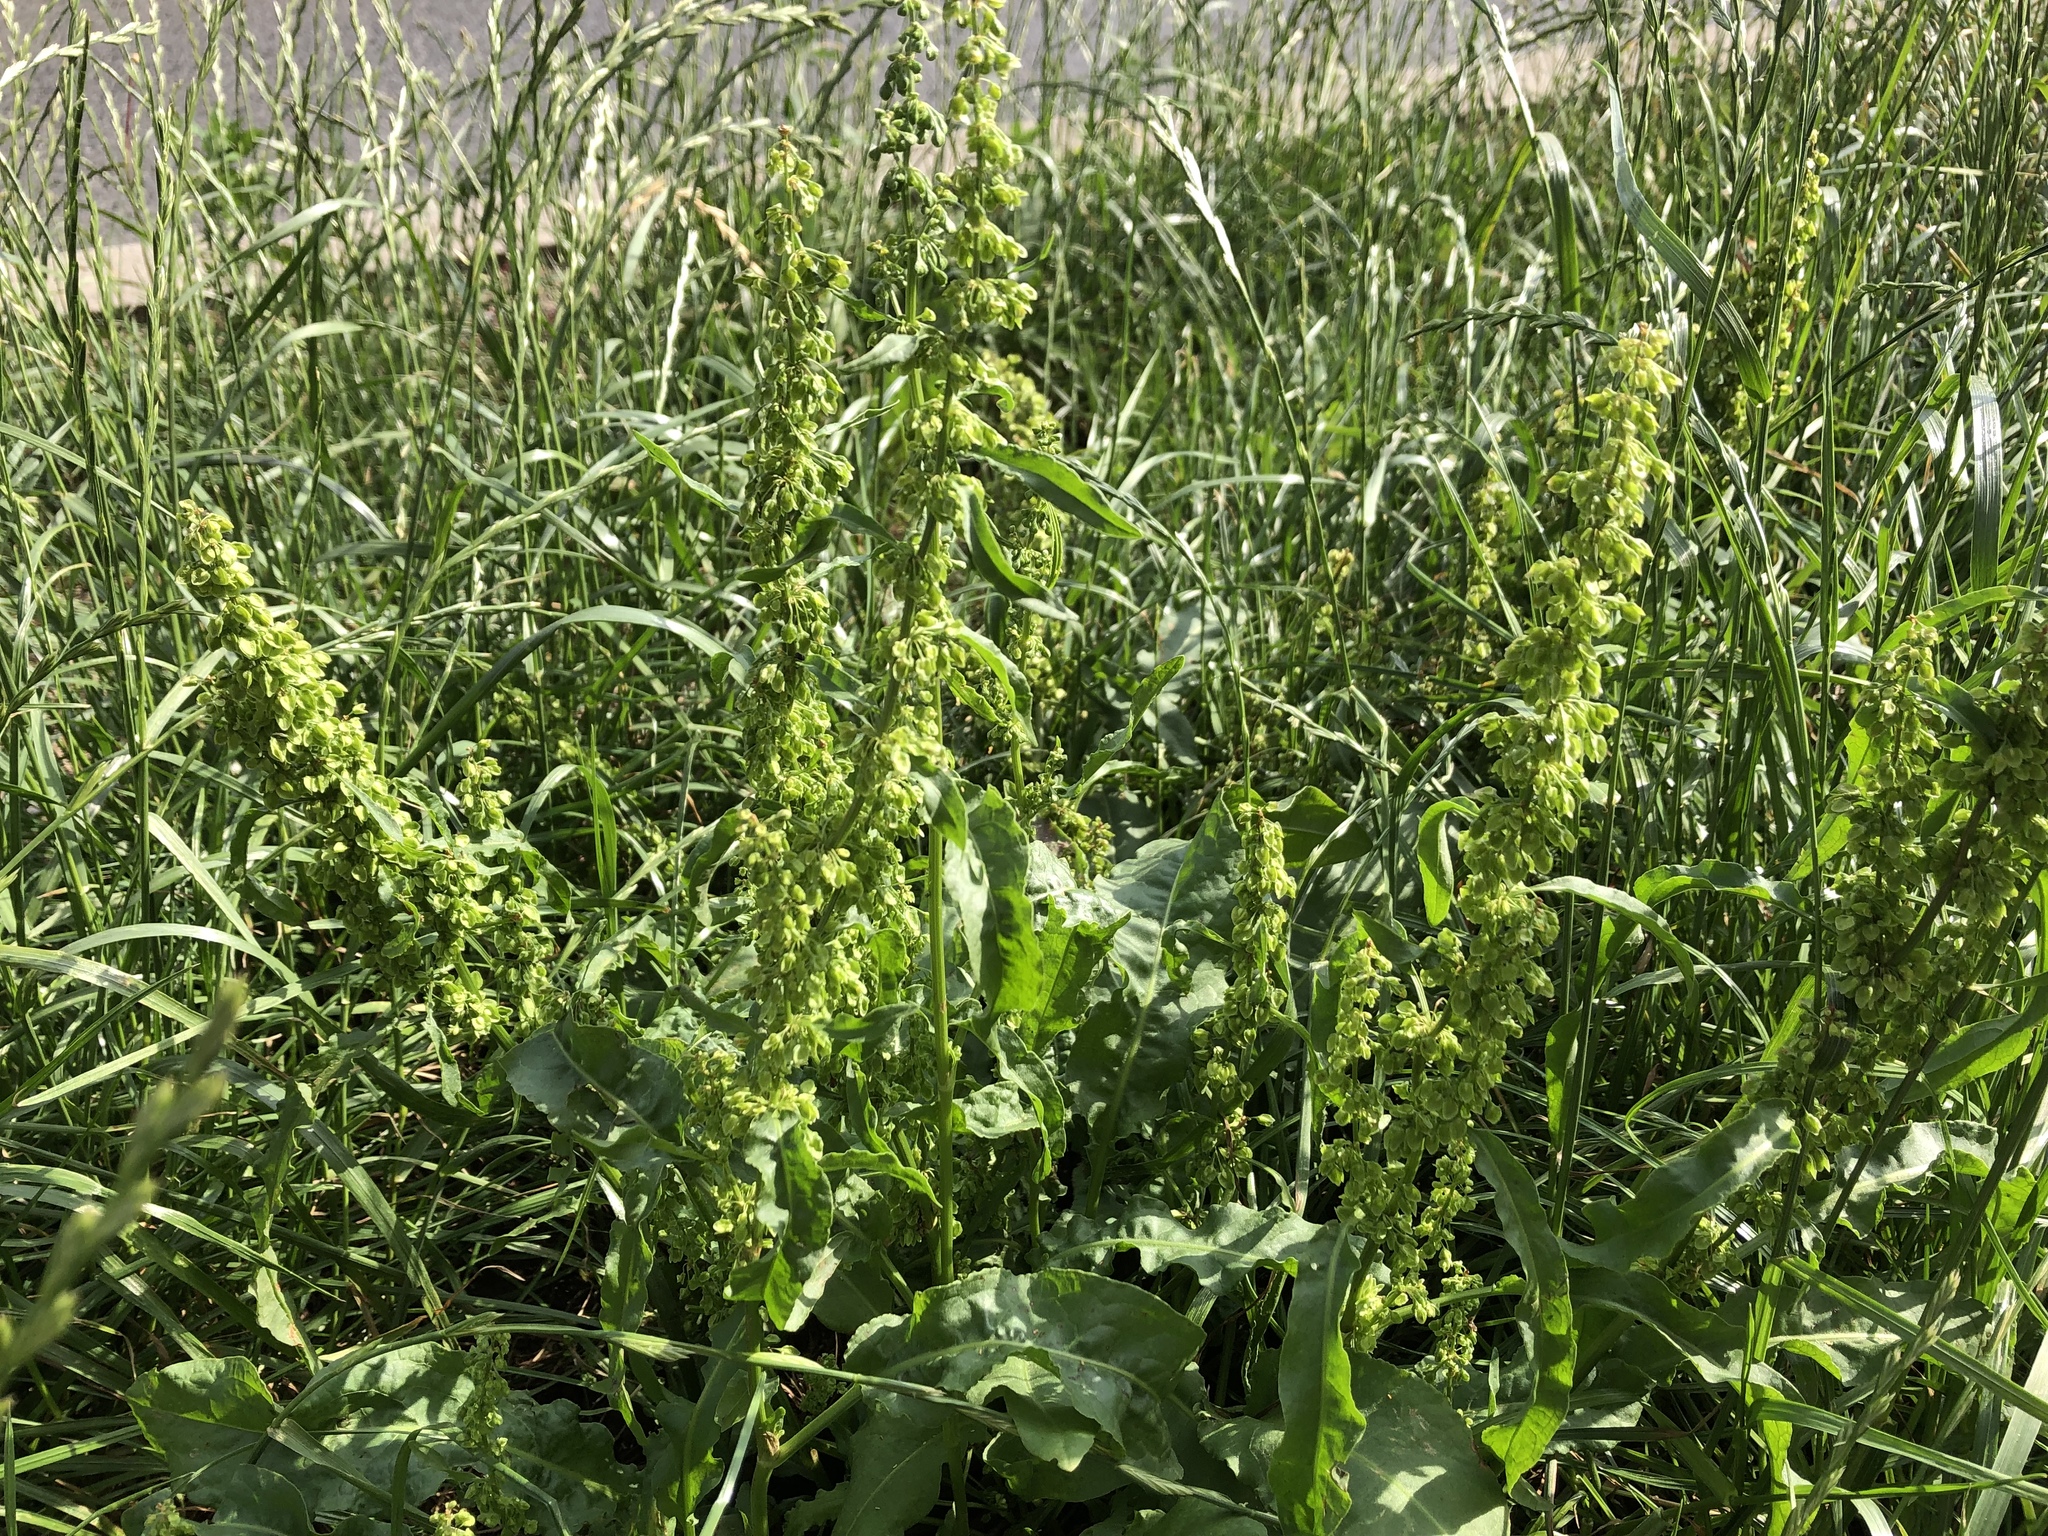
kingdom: Plantae
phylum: Tracheophyta
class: Magnoliopsida
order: Caryophyllales
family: Polygonaceae
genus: Rumex
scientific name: Rumex crispus
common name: Curled dock
